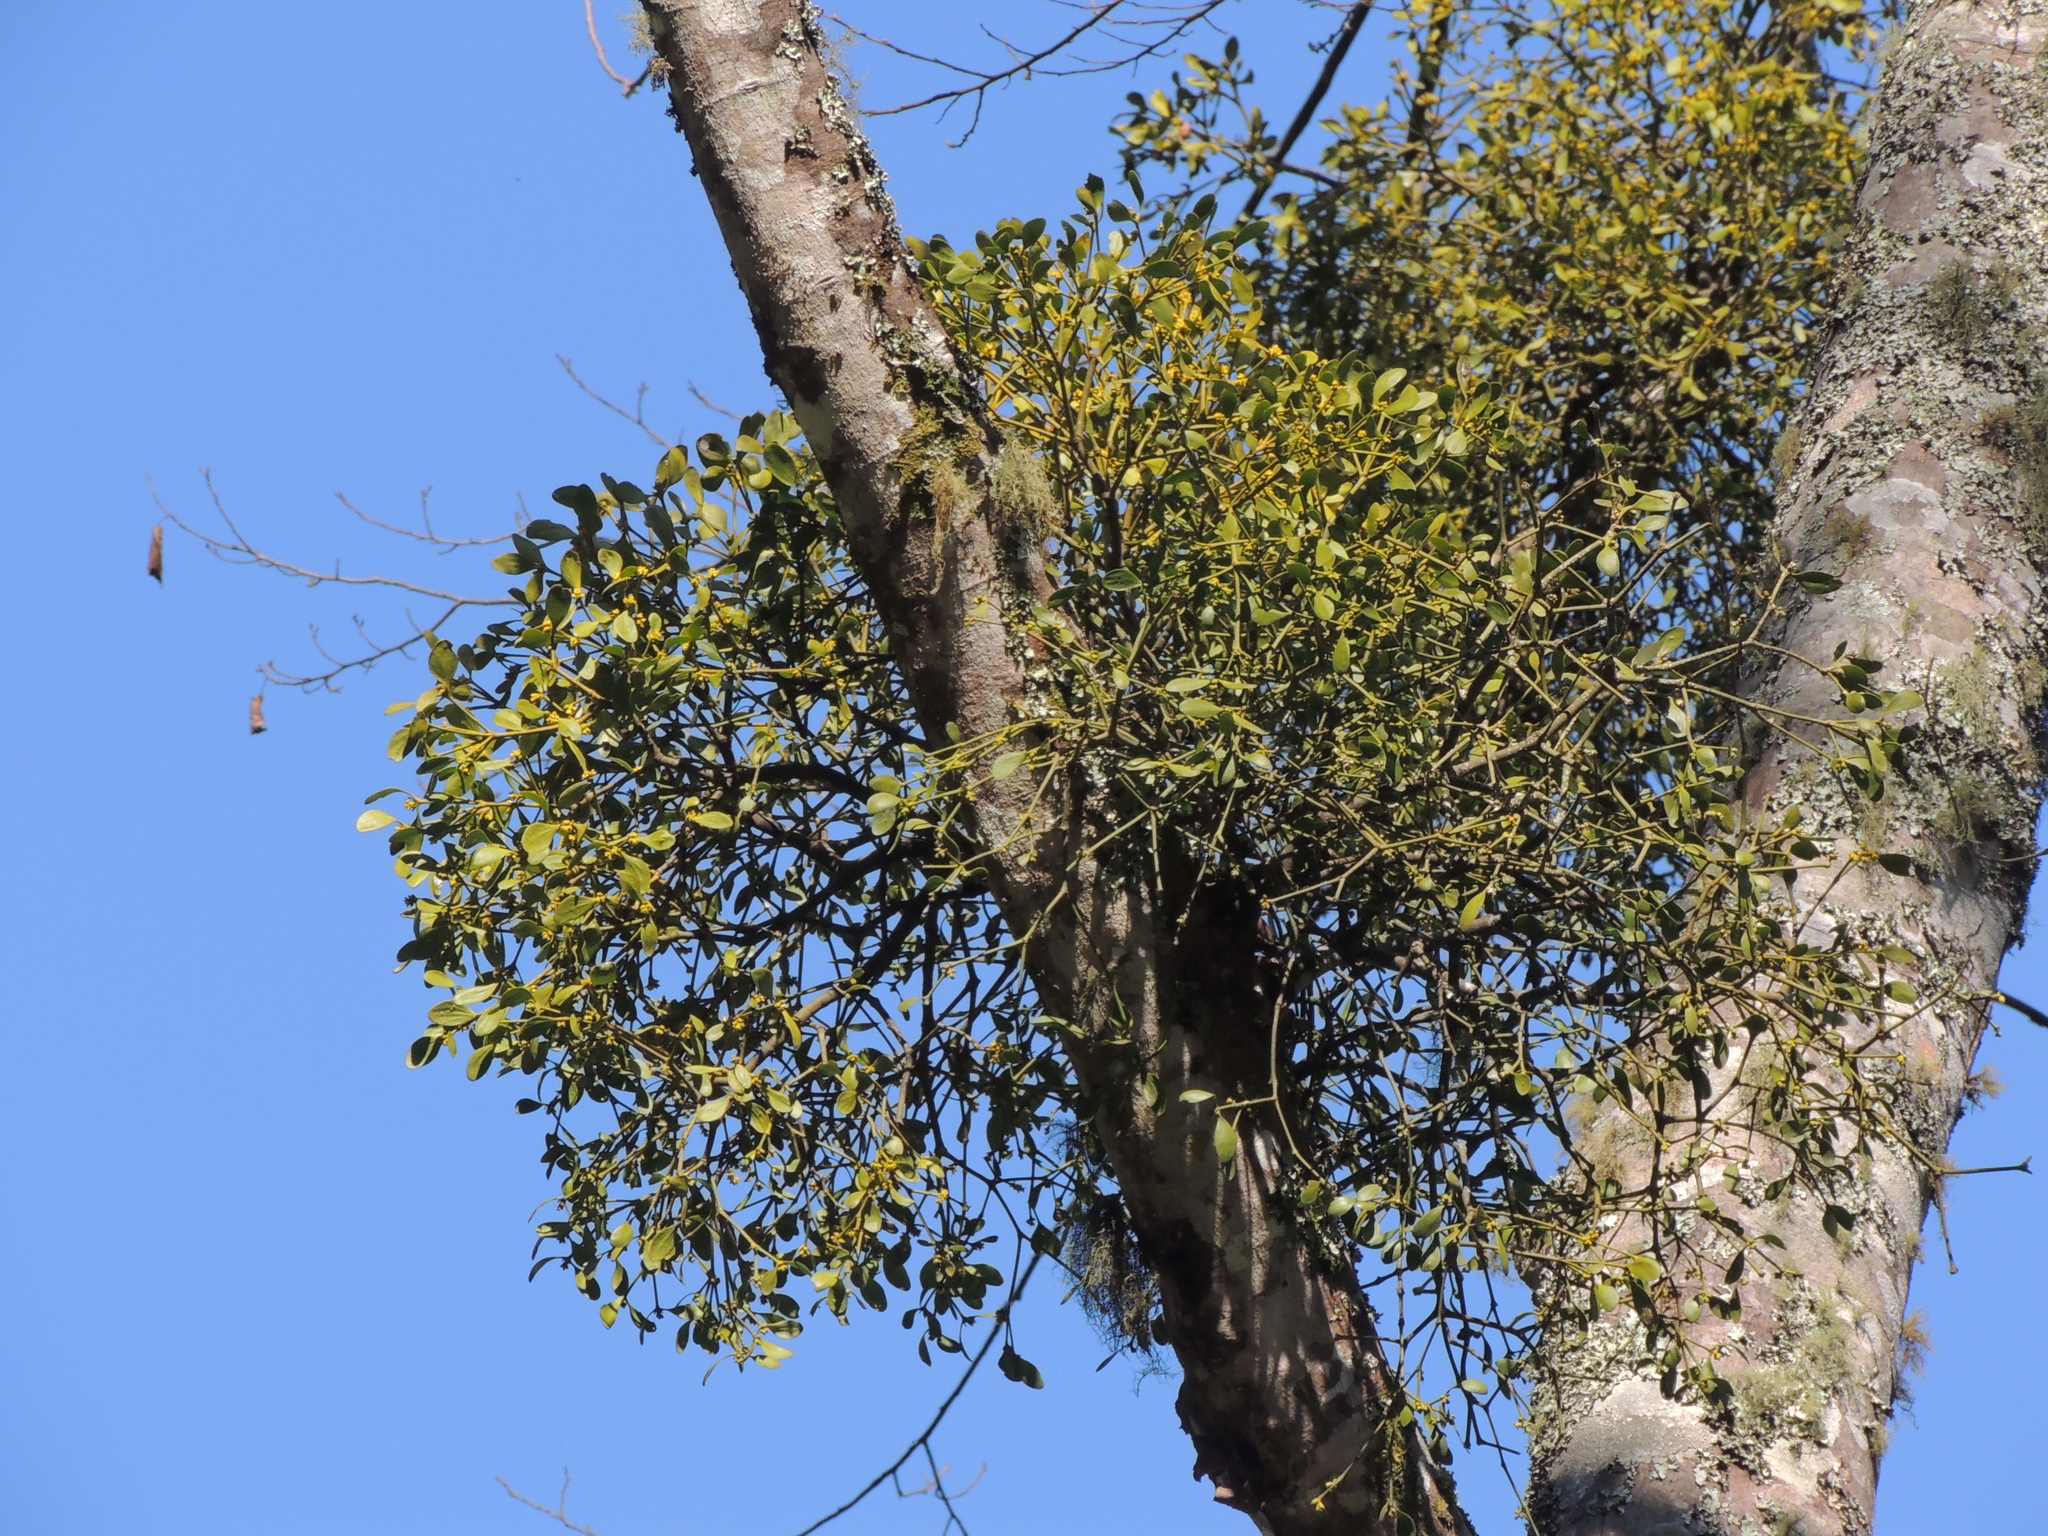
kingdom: Plantae
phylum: Tracheophyta
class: Magnoliopsida
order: Santalales
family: Viscaceae
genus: Viscum
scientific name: Viscum coloratum
